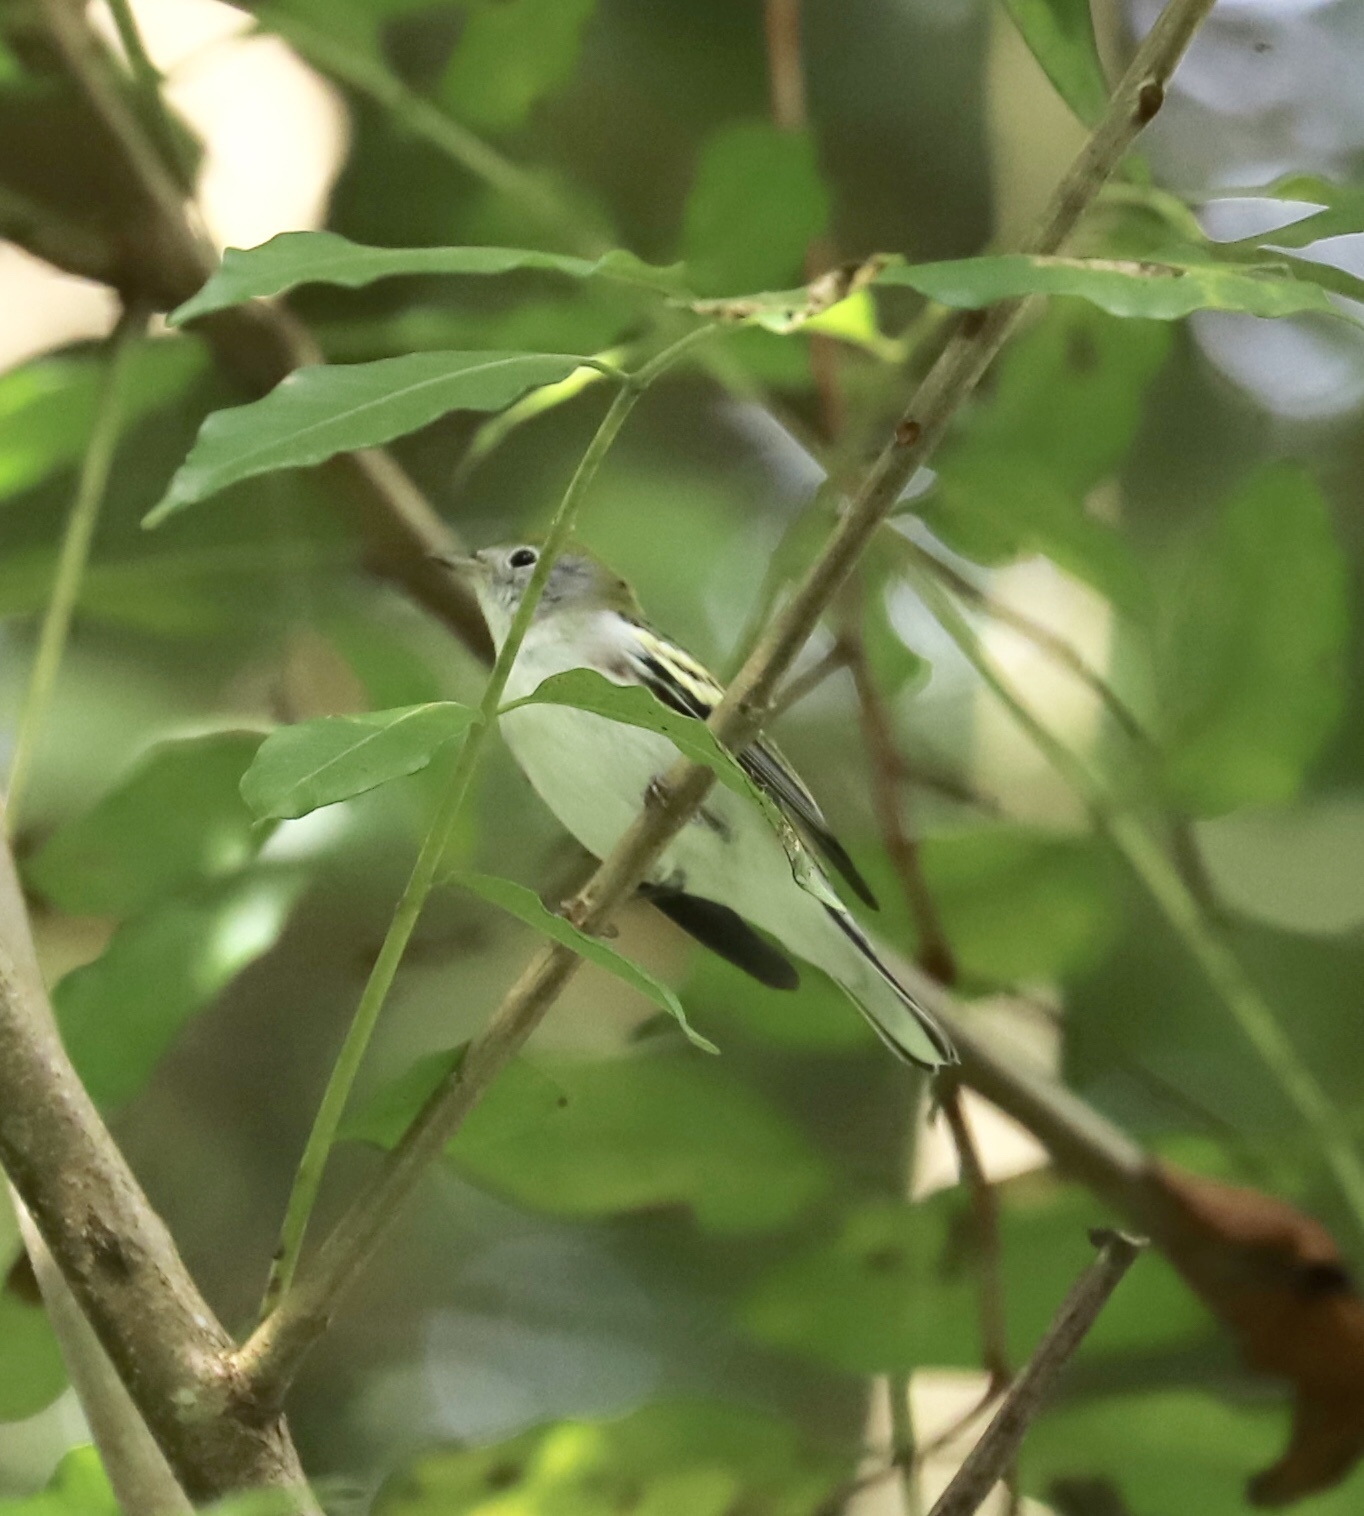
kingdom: Animalia
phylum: Chordata
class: Aves
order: Passeriformes
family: Parulidae
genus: Setophaga
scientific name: Setophaga pensylvanica
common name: Chestnut-sided warbler
